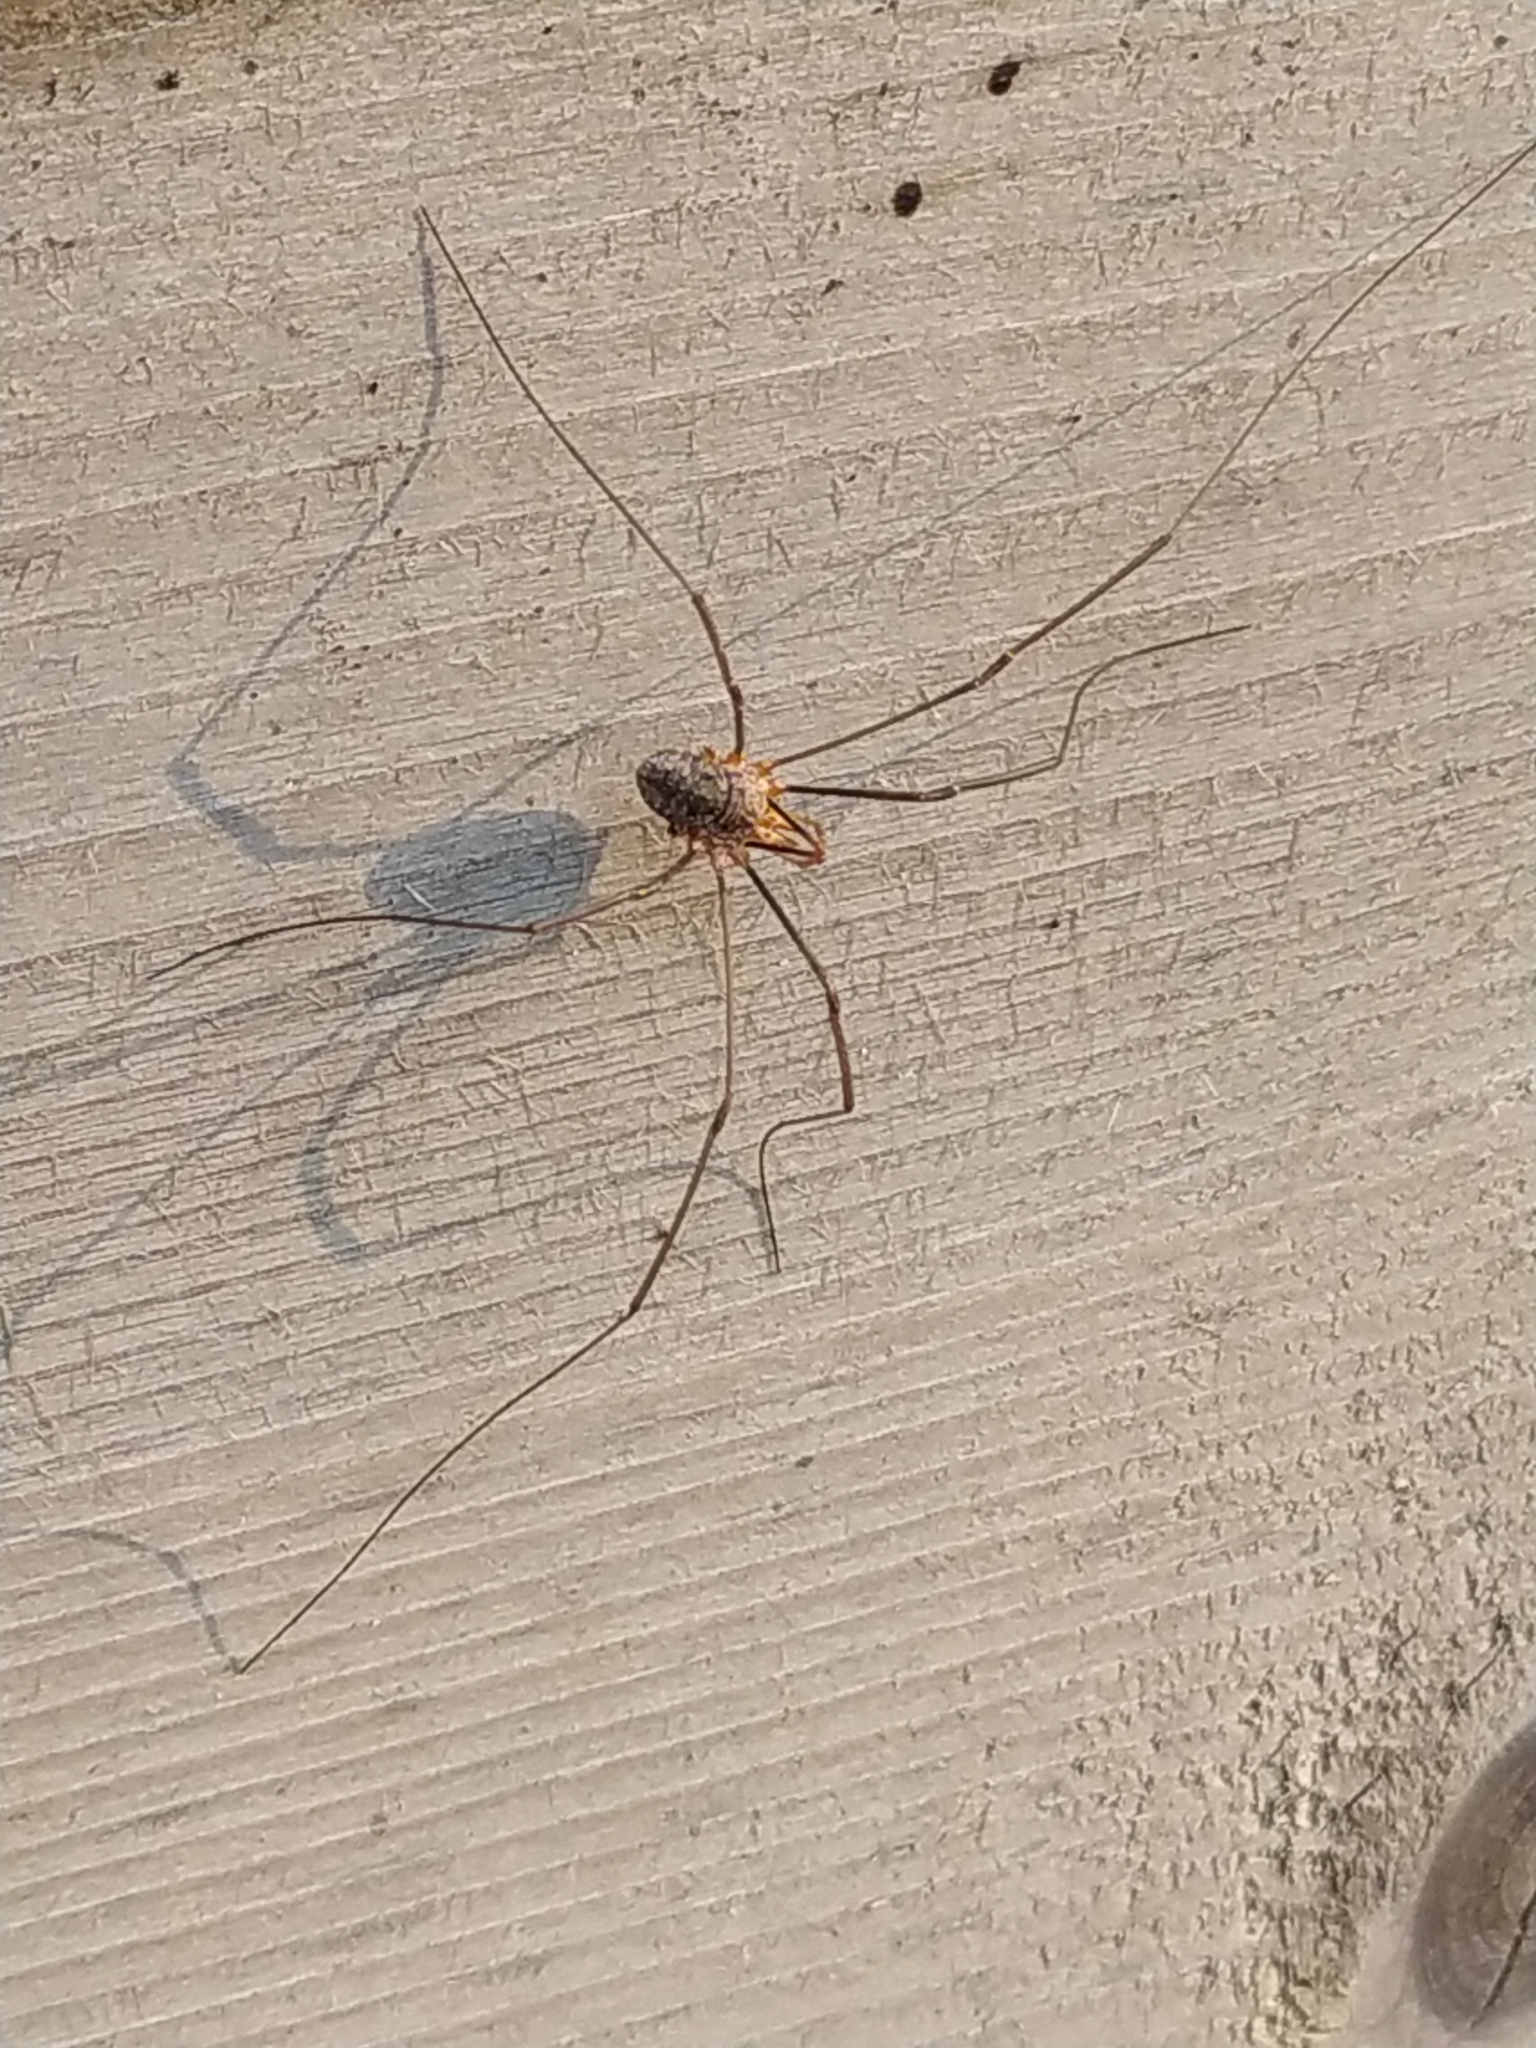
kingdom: Animalia
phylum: Arthropoda
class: Arachnida
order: Opiliones
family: Phalangiidae
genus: Phalangium
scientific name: Phalangium opilio
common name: Daddy longleg
